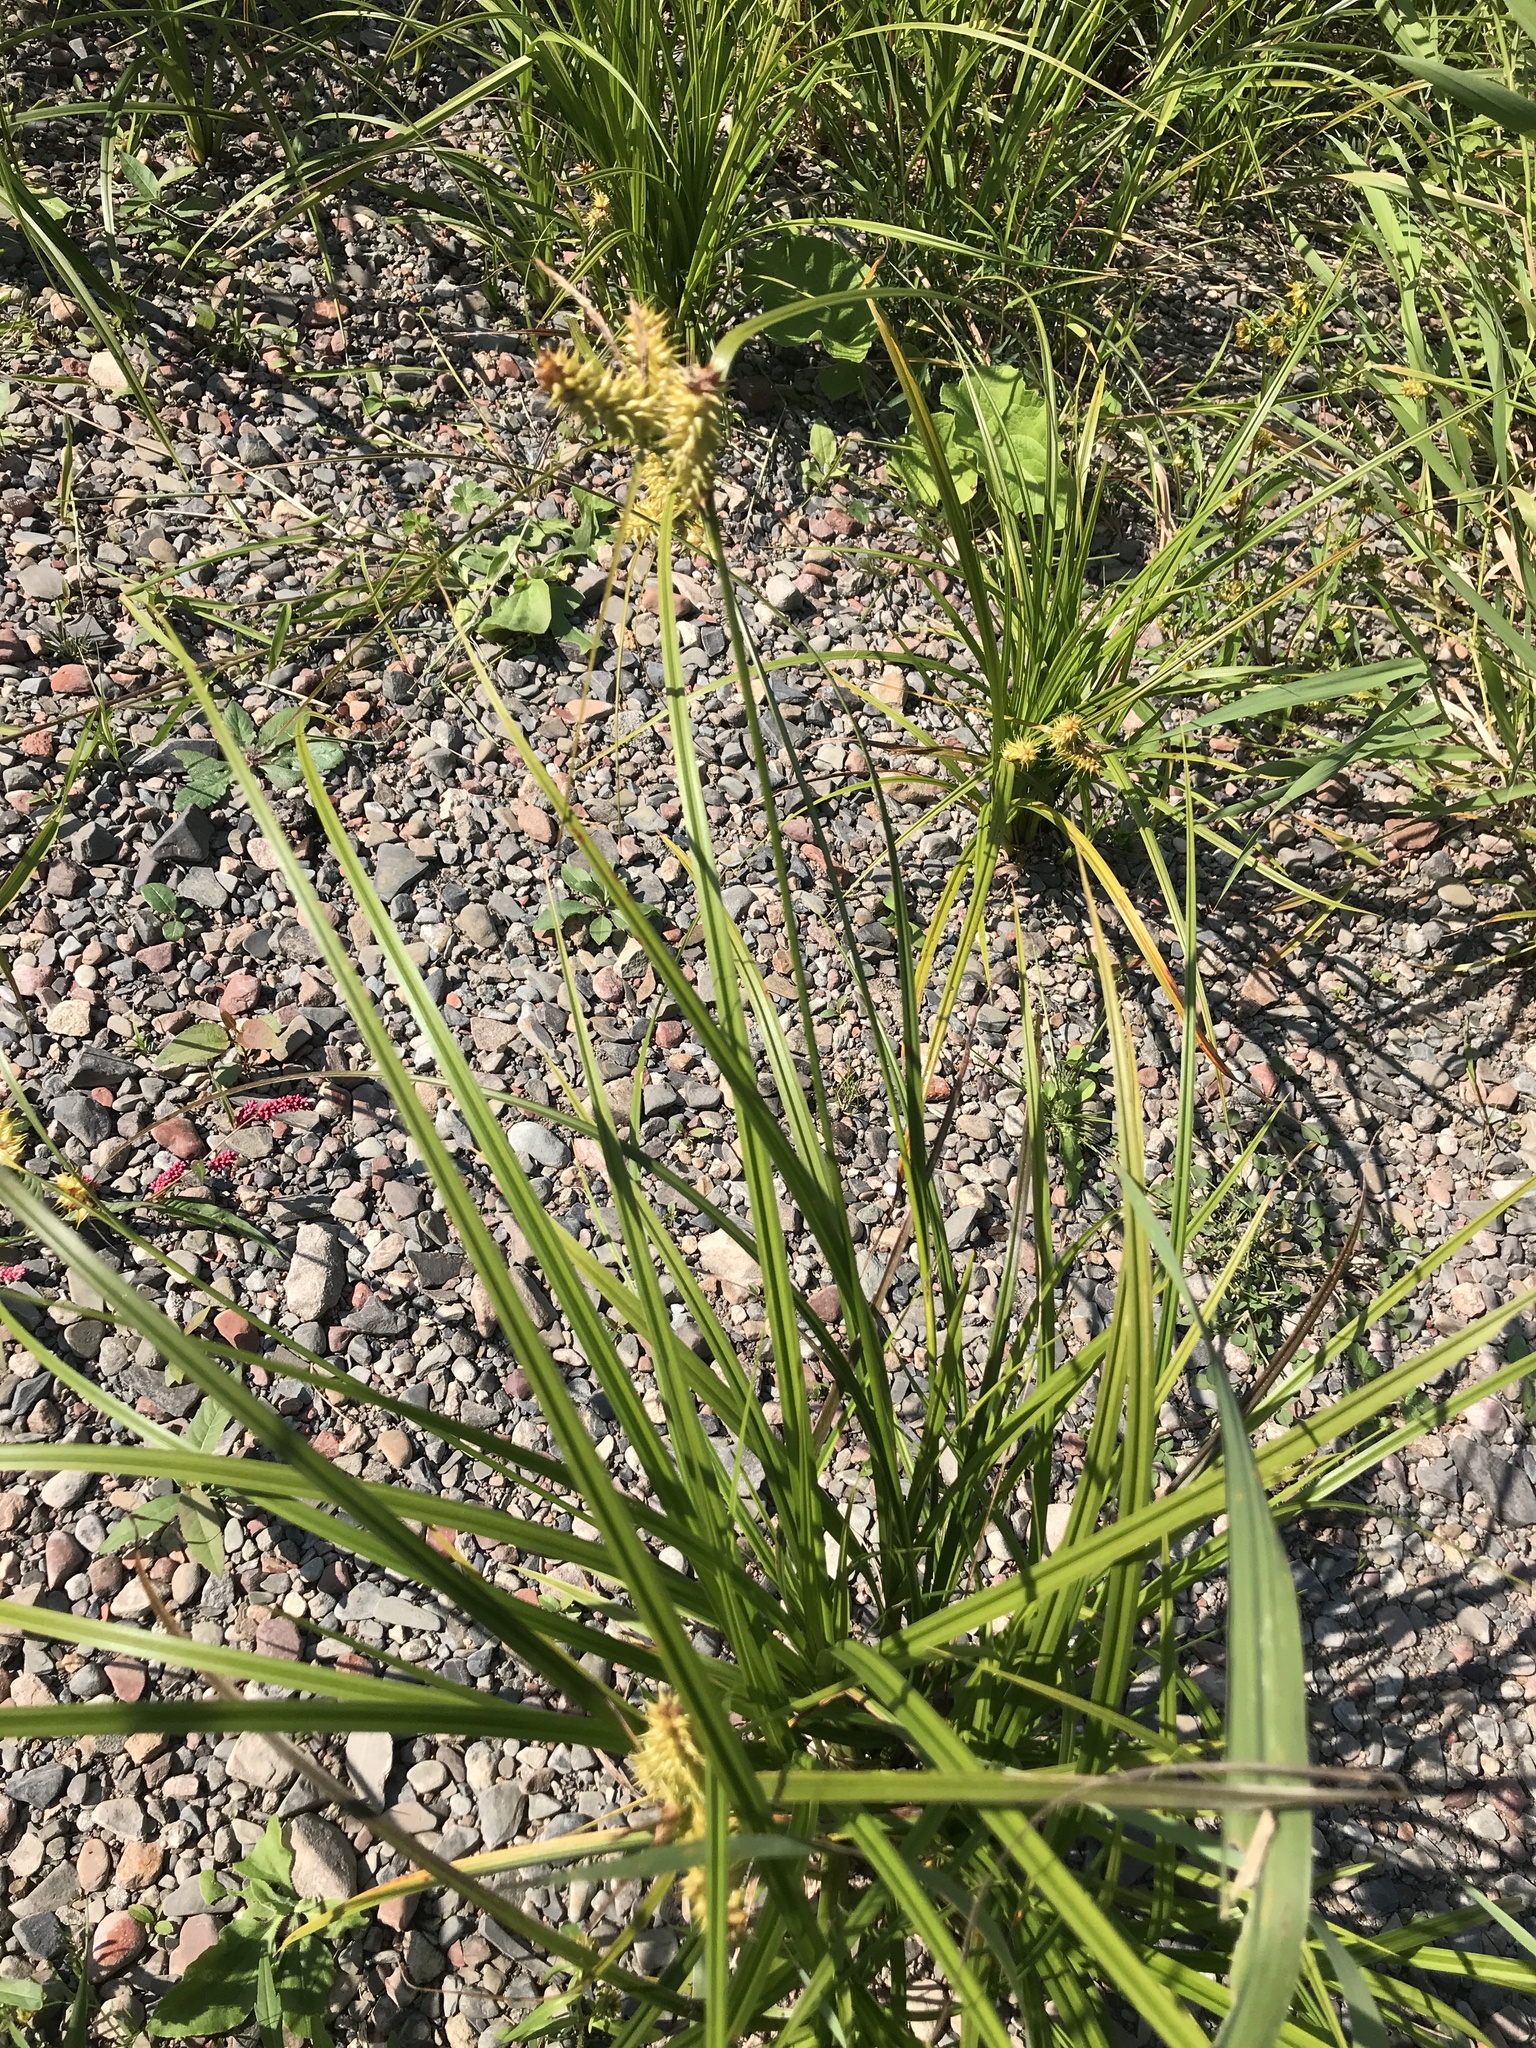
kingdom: Plantae
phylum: Tracheophyta
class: Liliopsida
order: Poales
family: Cyperaceae
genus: Carex
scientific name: Carex retrorsa
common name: Knot-sheath sedge
